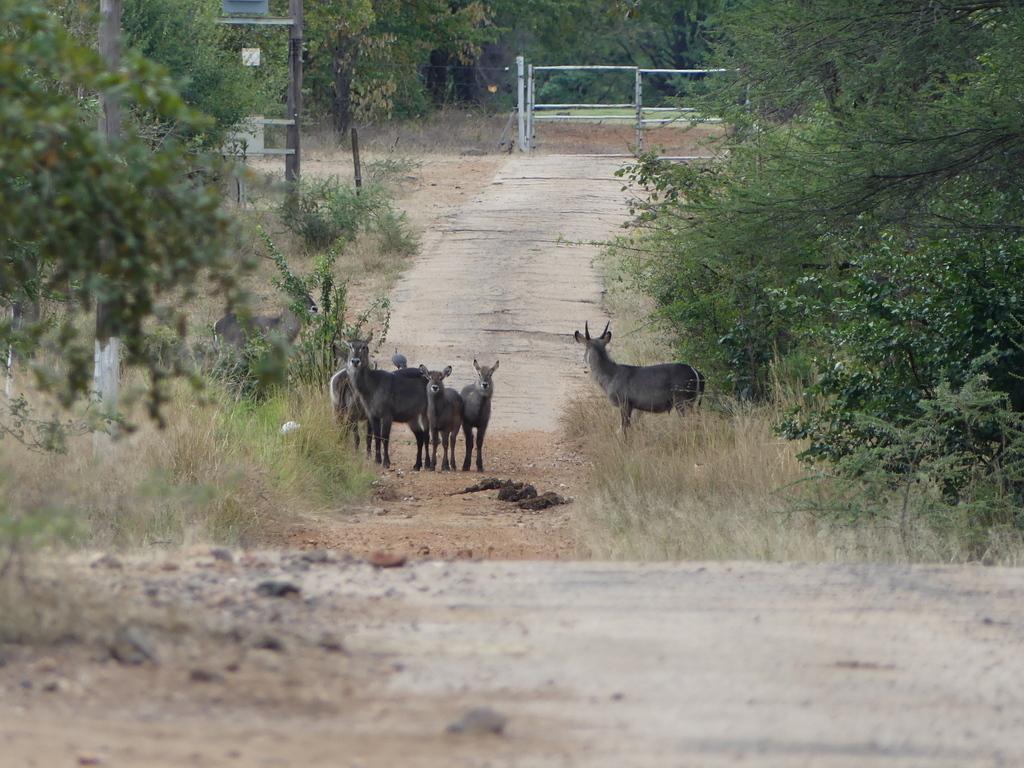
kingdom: Animalia
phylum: Chordata
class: Mammalia
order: Artiodactyla
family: Bovidae
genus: Kobus
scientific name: Kobus ellipsiprymnus
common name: Waterbuck
